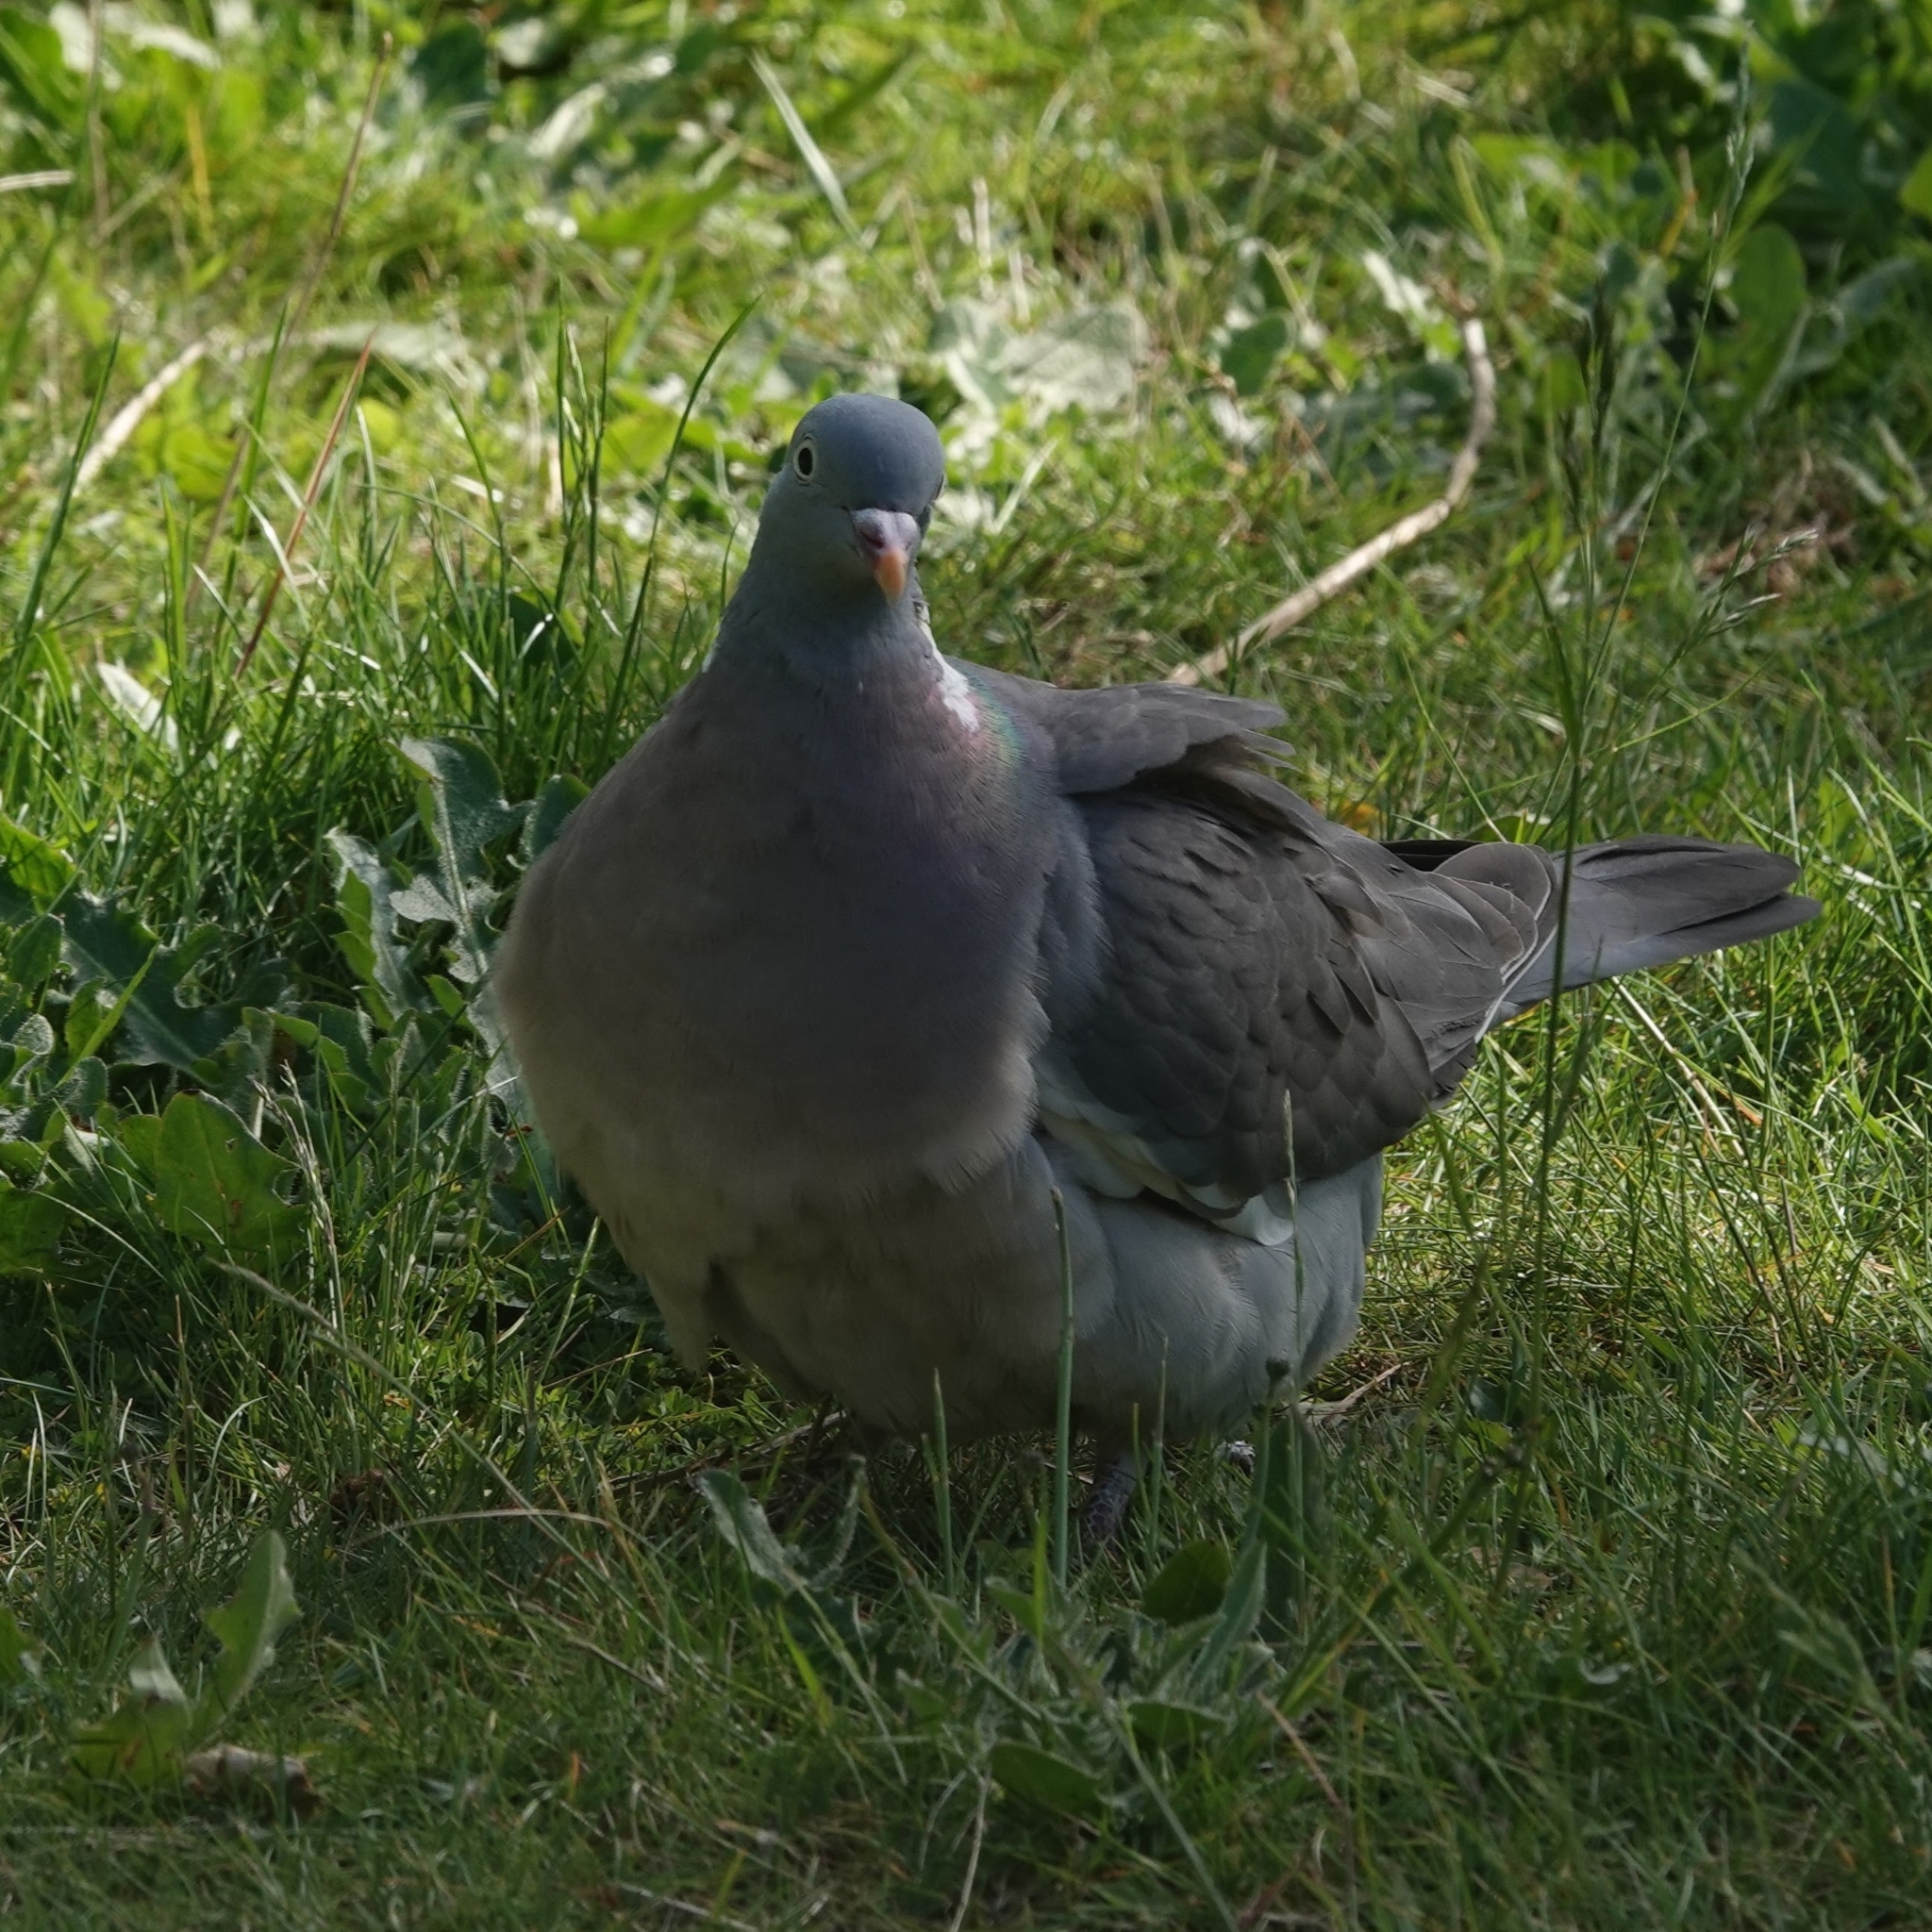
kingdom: Animalia
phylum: Chordata
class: Aves
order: Columbiformes
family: Columbidae
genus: Columba
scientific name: Columba palumbus
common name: Common wood pigeon
